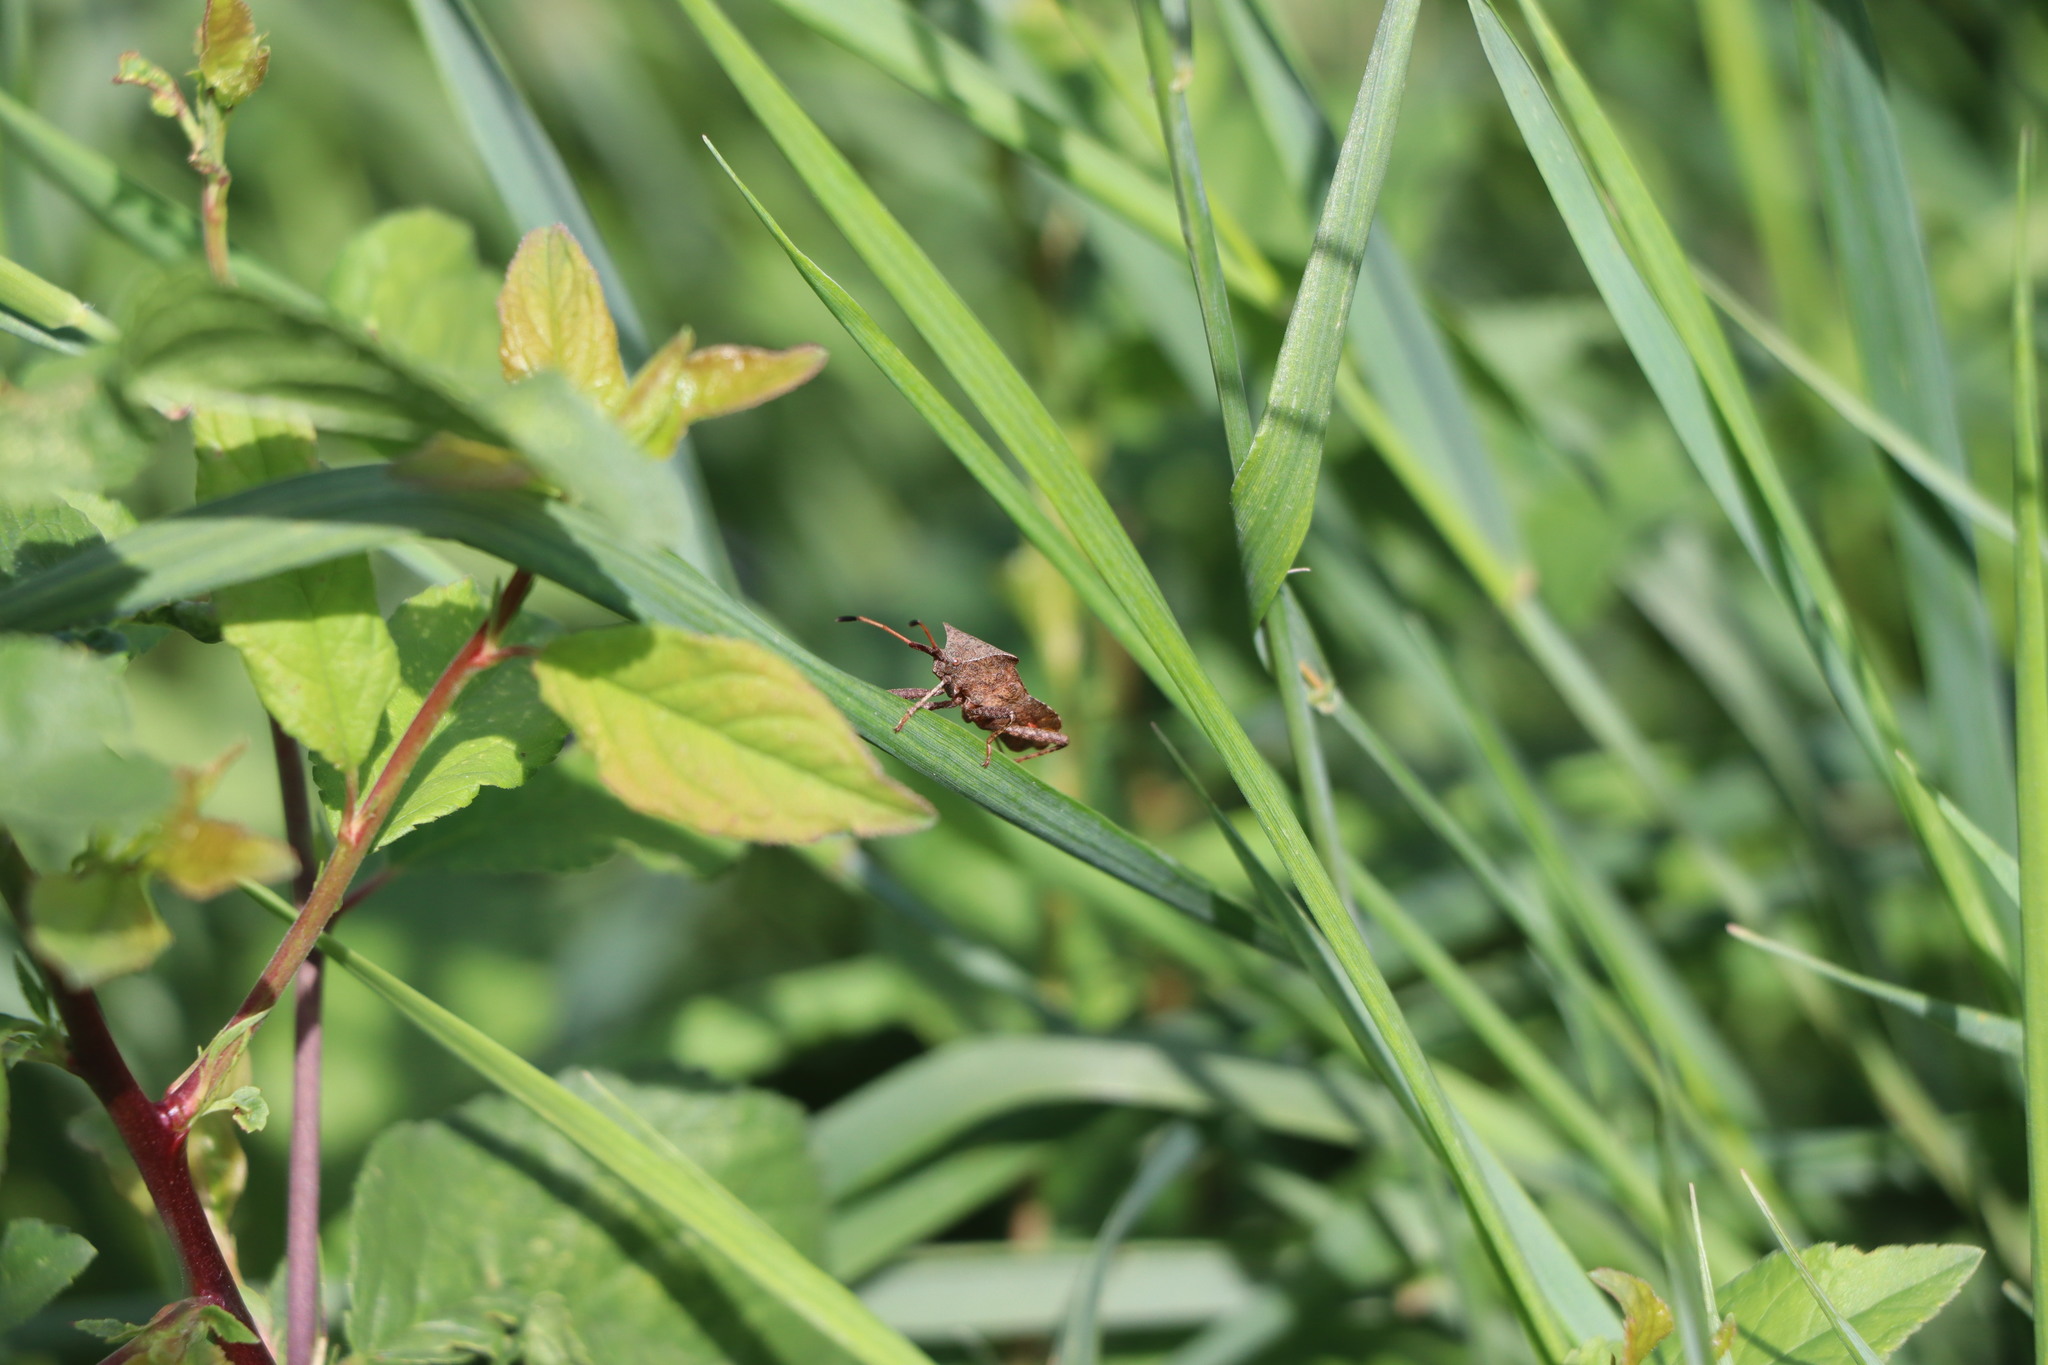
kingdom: Animalia
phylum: Arthropoda
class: Insecta
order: Hemiptera
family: Coreidae
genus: Coreus
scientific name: Coreus marginatus
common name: Dock bug
